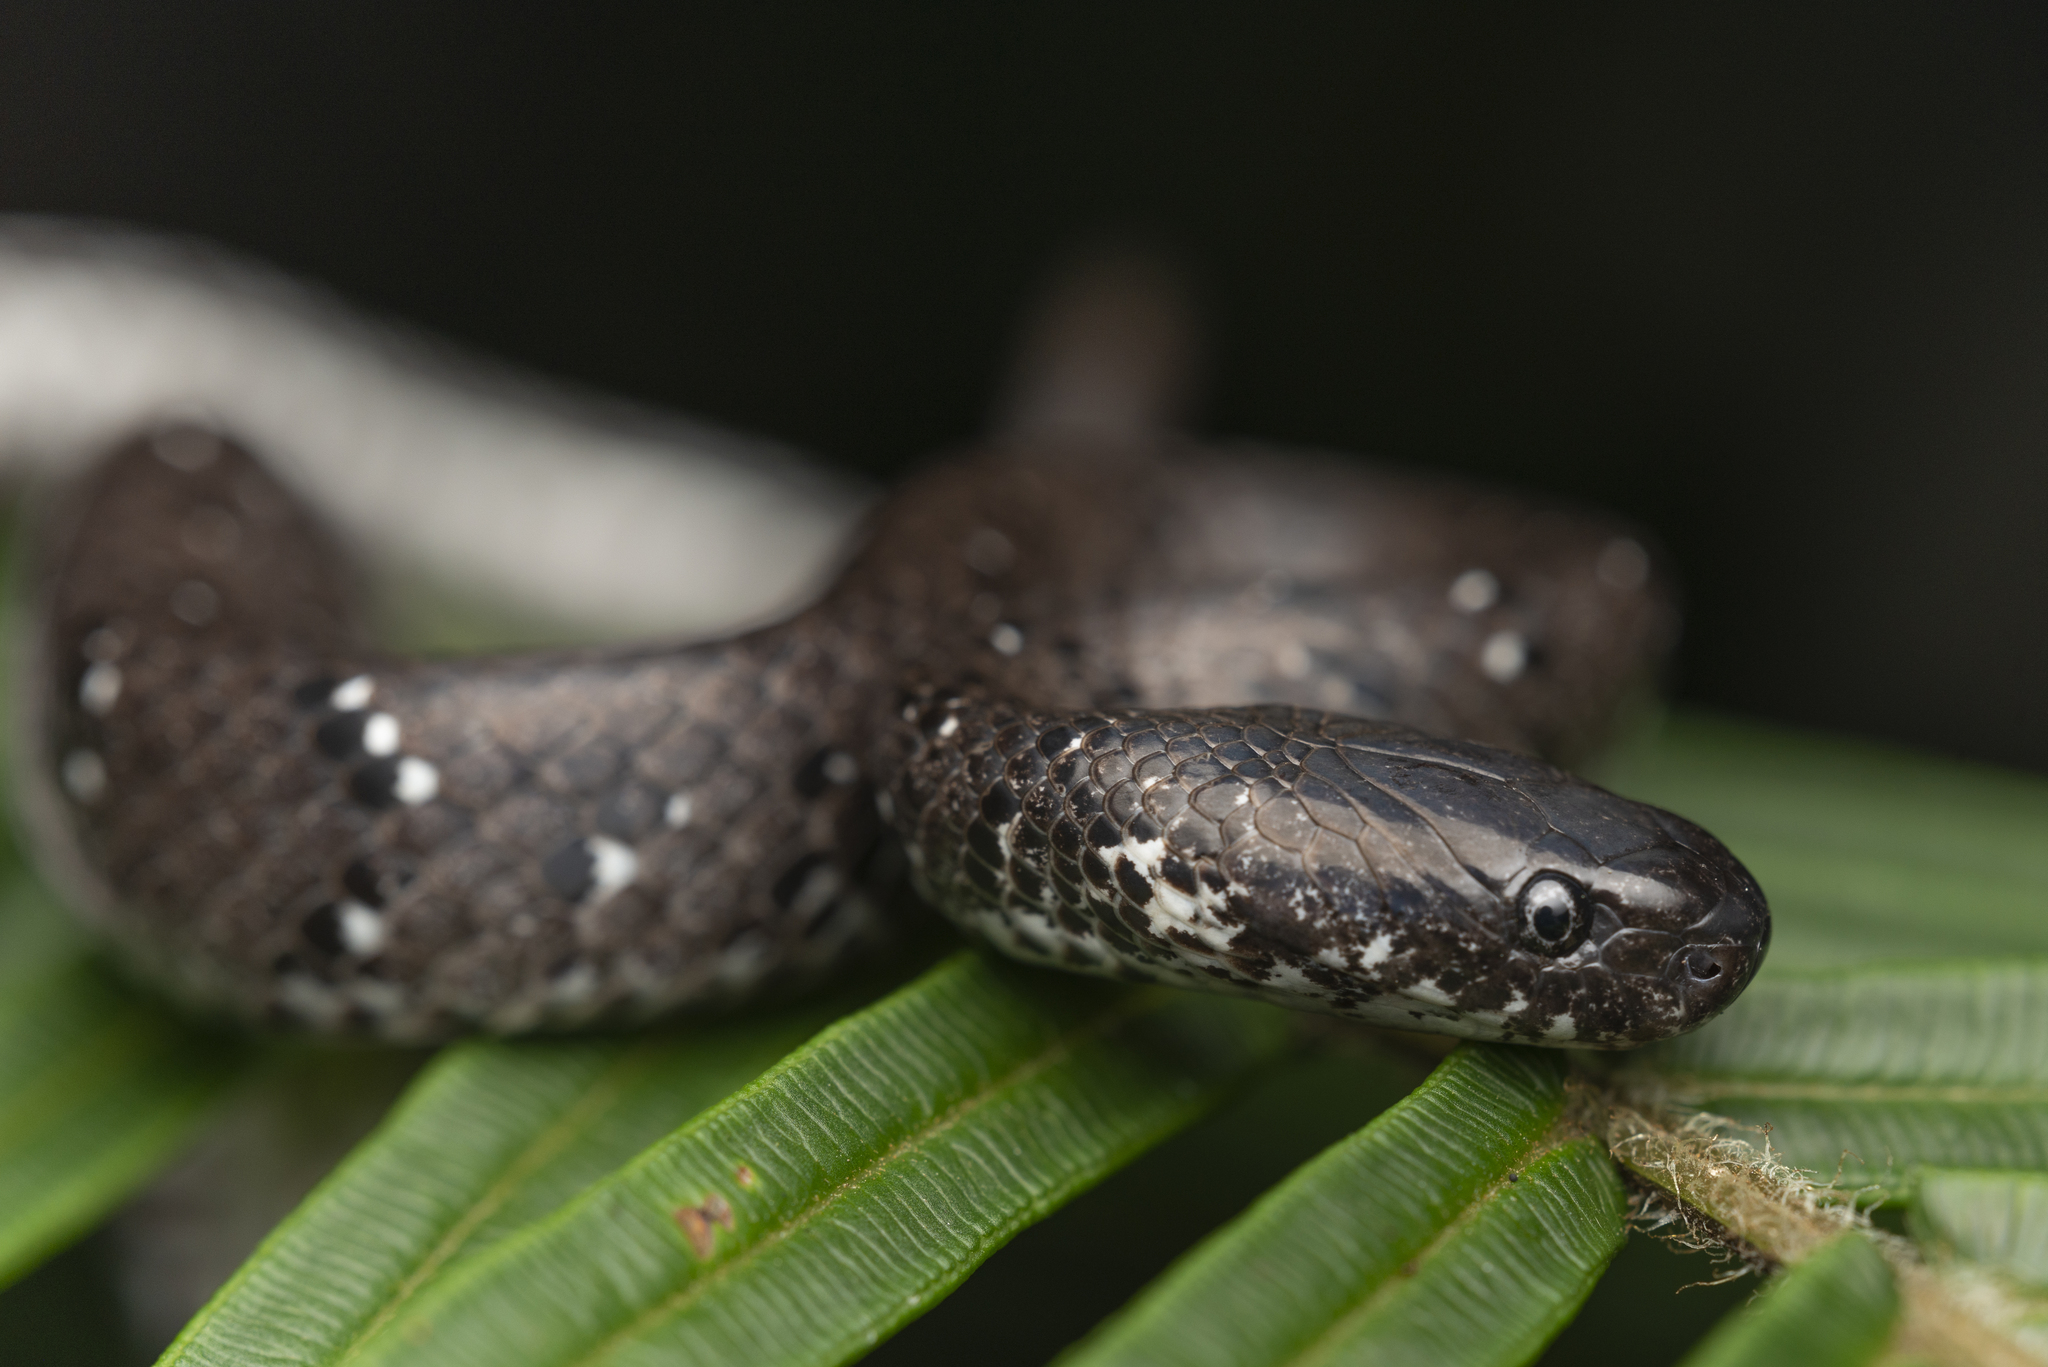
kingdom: Animalia
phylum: Chordata
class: Squamata
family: Pareidae
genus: Pareas
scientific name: Pareas margaritophorus
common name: Mountain slug snake
